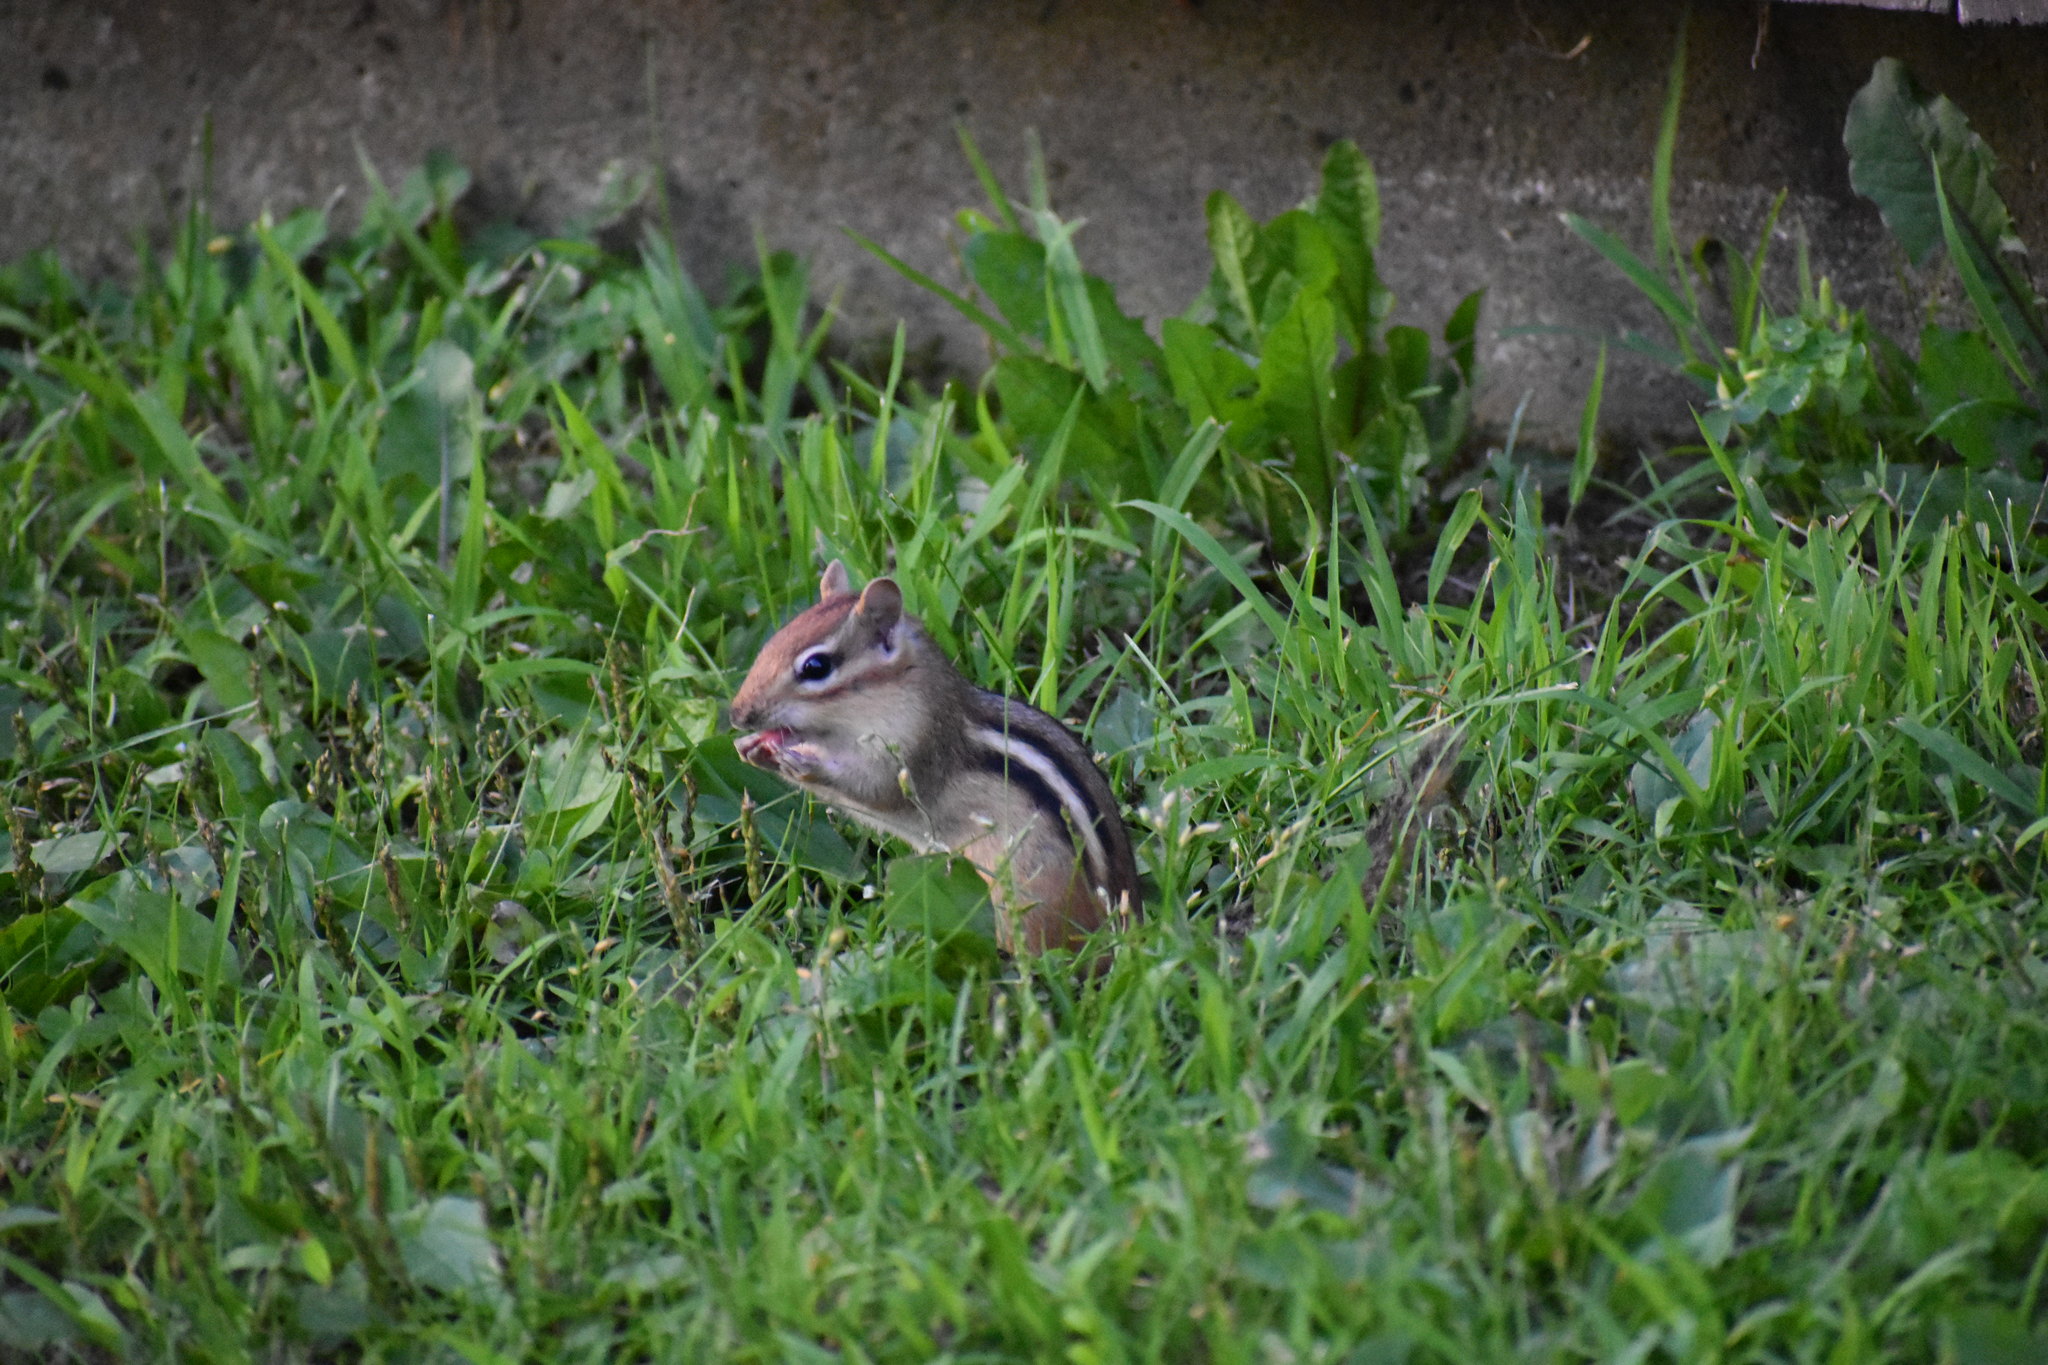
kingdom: Animalia
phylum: Chordata
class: Mammalia
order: Rodentia
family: Sciuridae
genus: Tamias
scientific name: Tamias striatus
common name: Eastern chipmunk
